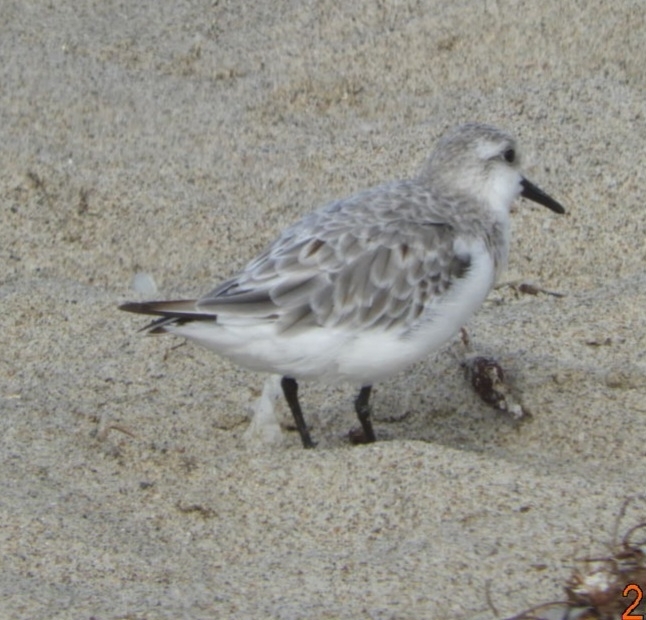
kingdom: Animalia
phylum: Chordata
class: Aves
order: Charadriiformes
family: Scolopacidae
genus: Calidris
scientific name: Calidris alba
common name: Sanderling
